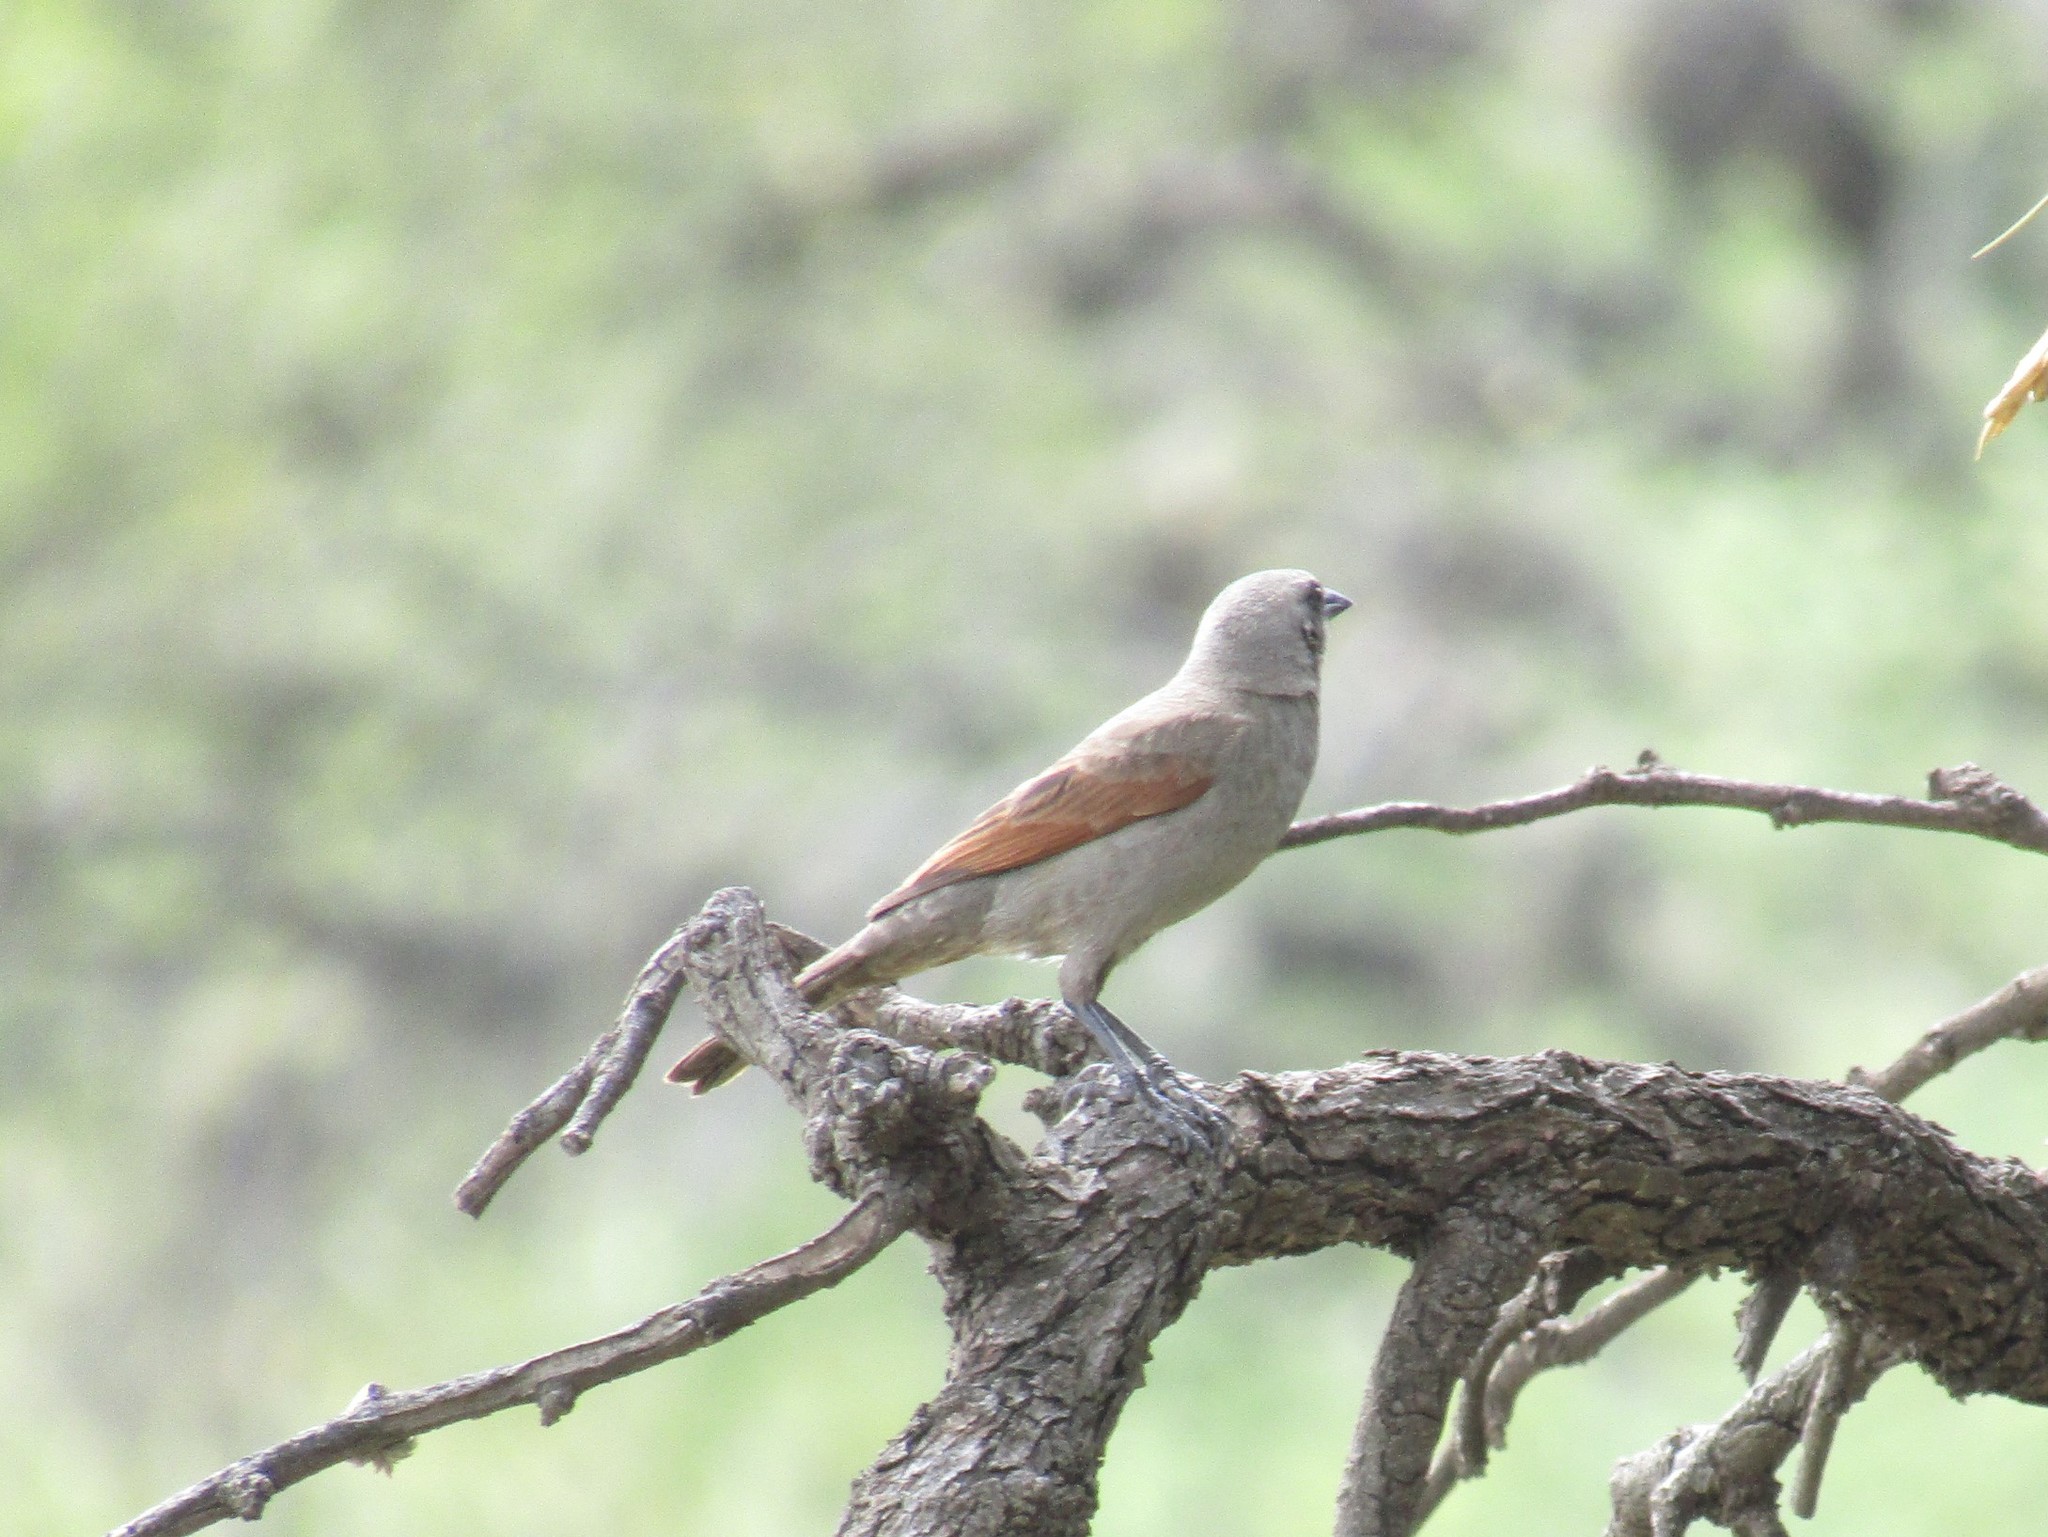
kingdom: Animalia
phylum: Chordata
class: Aves
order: Passeriformes
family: Icteridae
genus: Agelaioides
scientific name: Agelaioides badius
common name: Baywing
